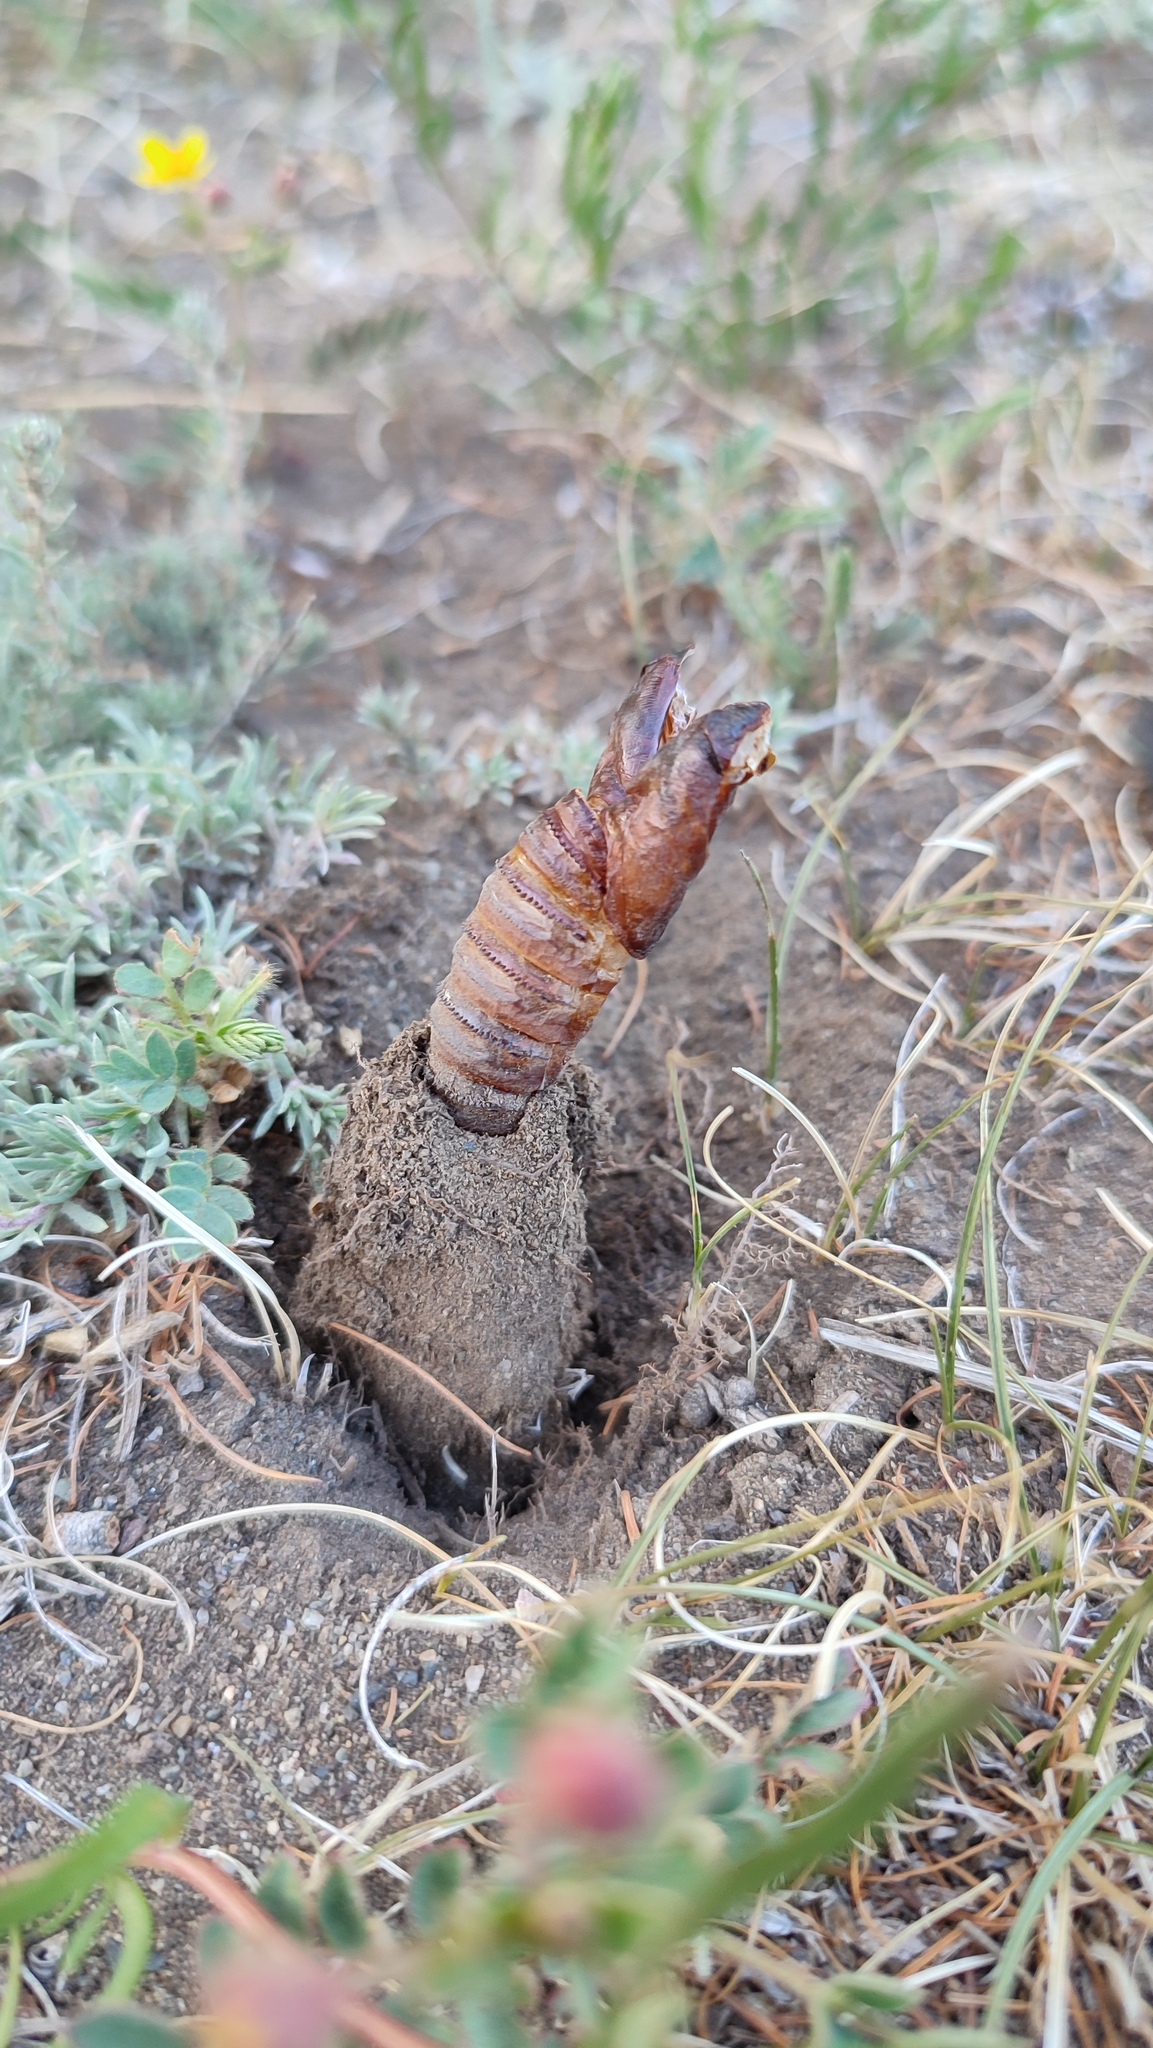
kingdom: Animalia
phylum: Arthropoda
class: Insecta
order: Lepidoptera
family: Cossidae
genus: Cossus
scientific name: Cossus cossus
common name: Goat moth
